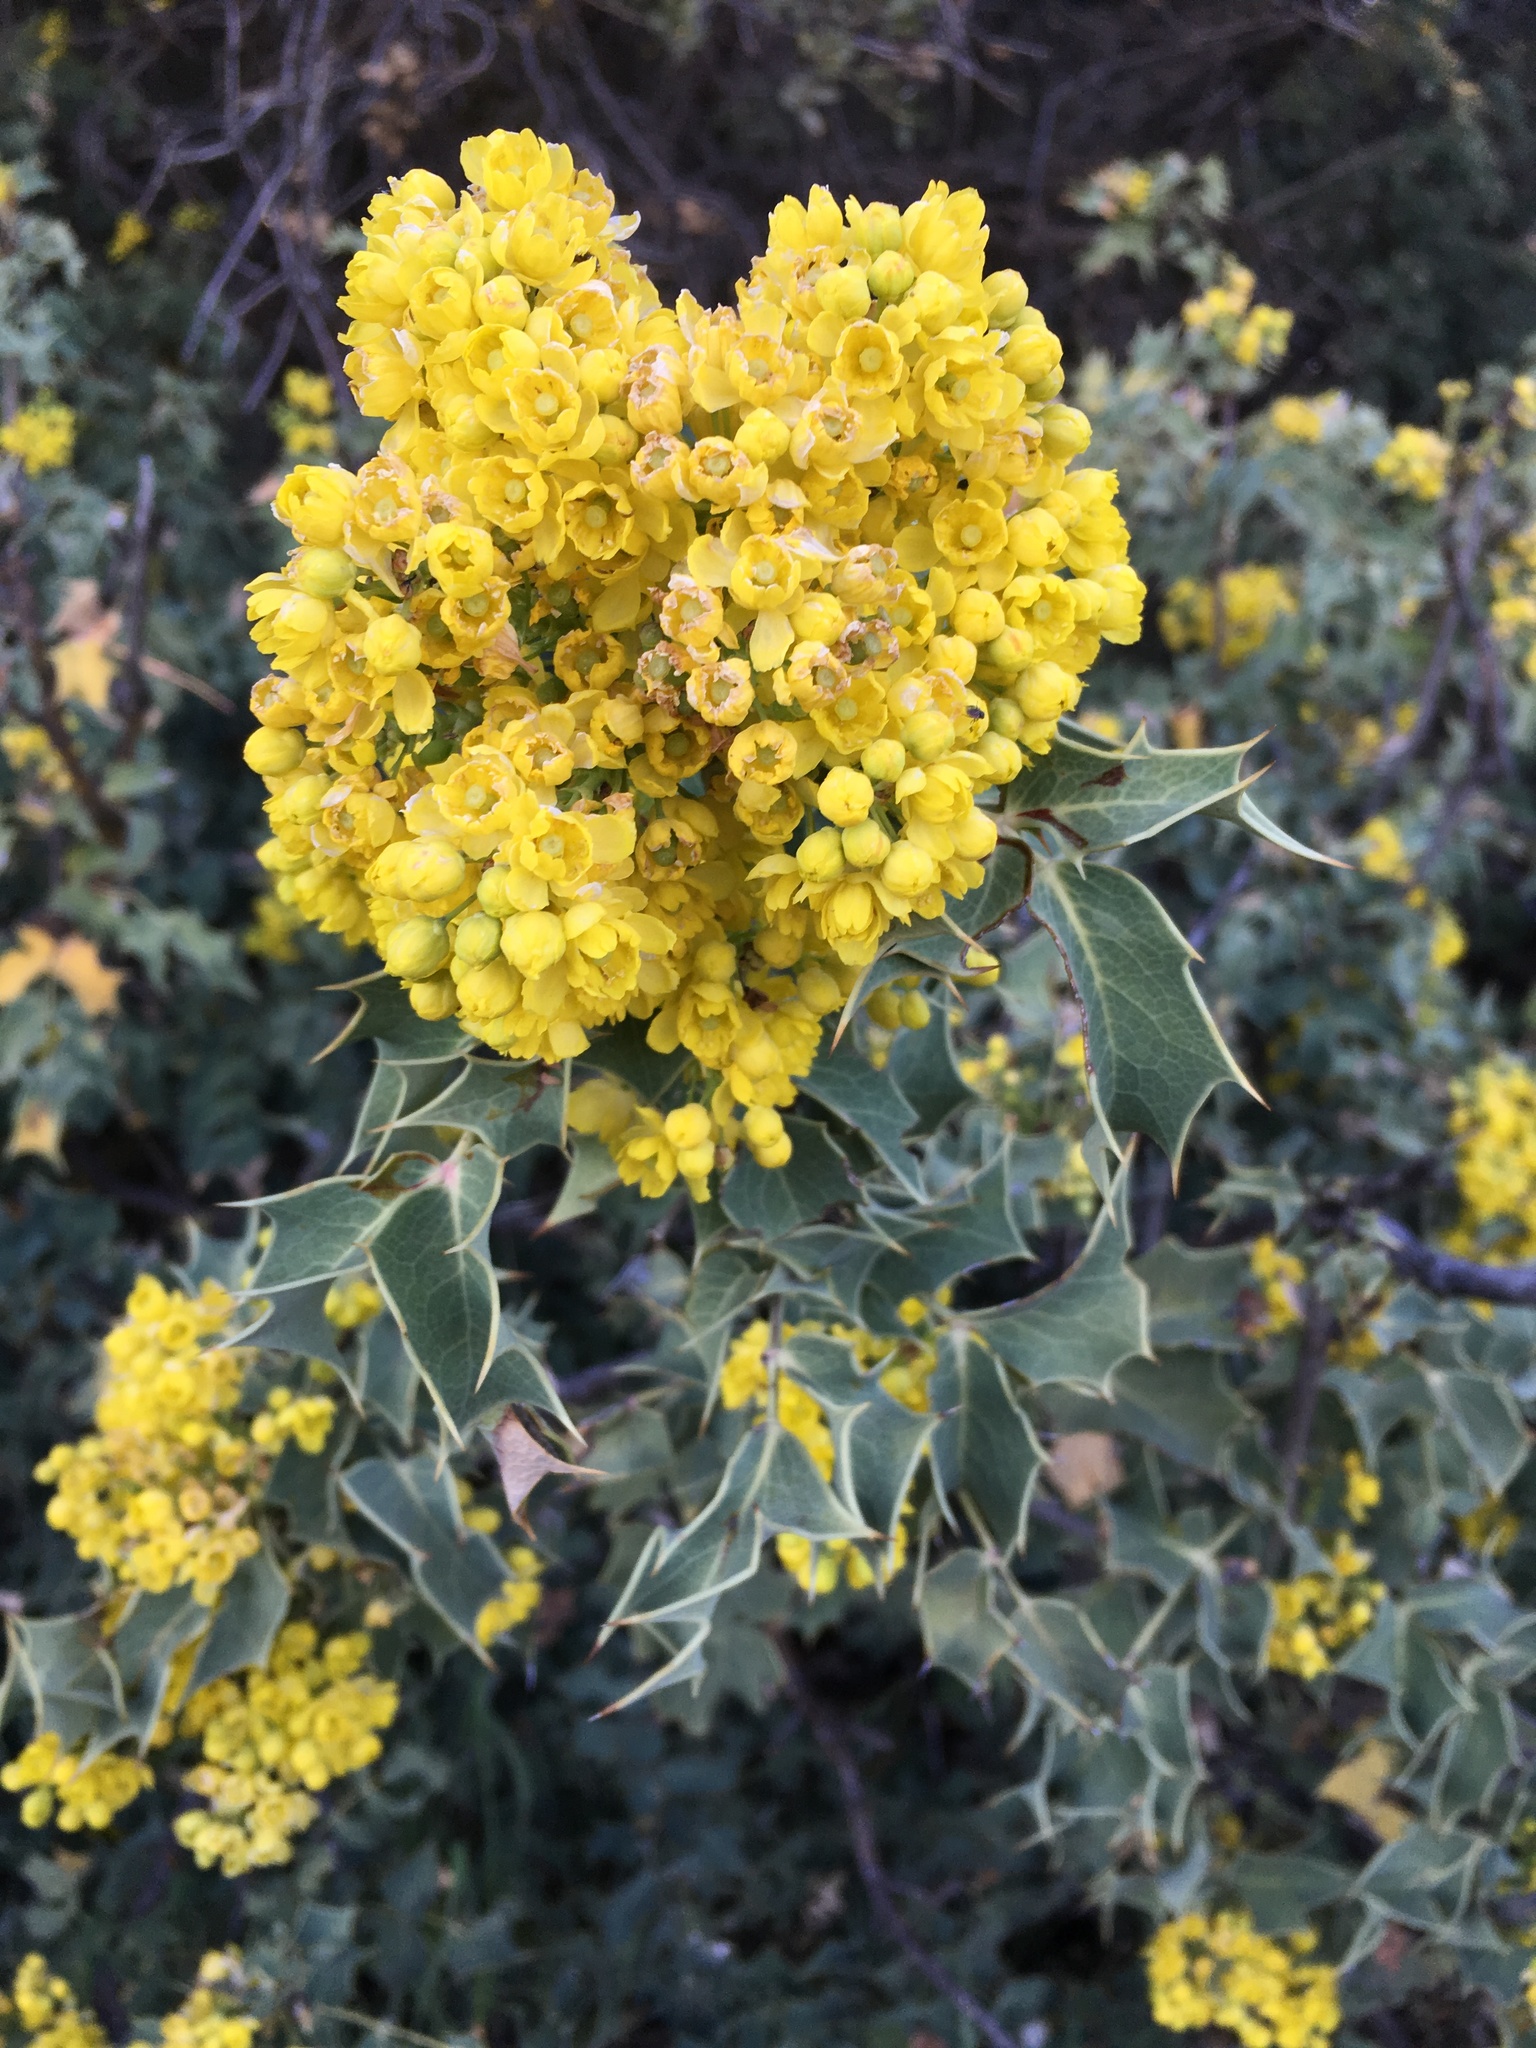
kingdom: Plantae
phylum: Tracheophyta
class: Magnoliopsida
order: Ranunculales
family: Berberidaceae
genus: Mahonia
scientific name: Mahonia dictyota
